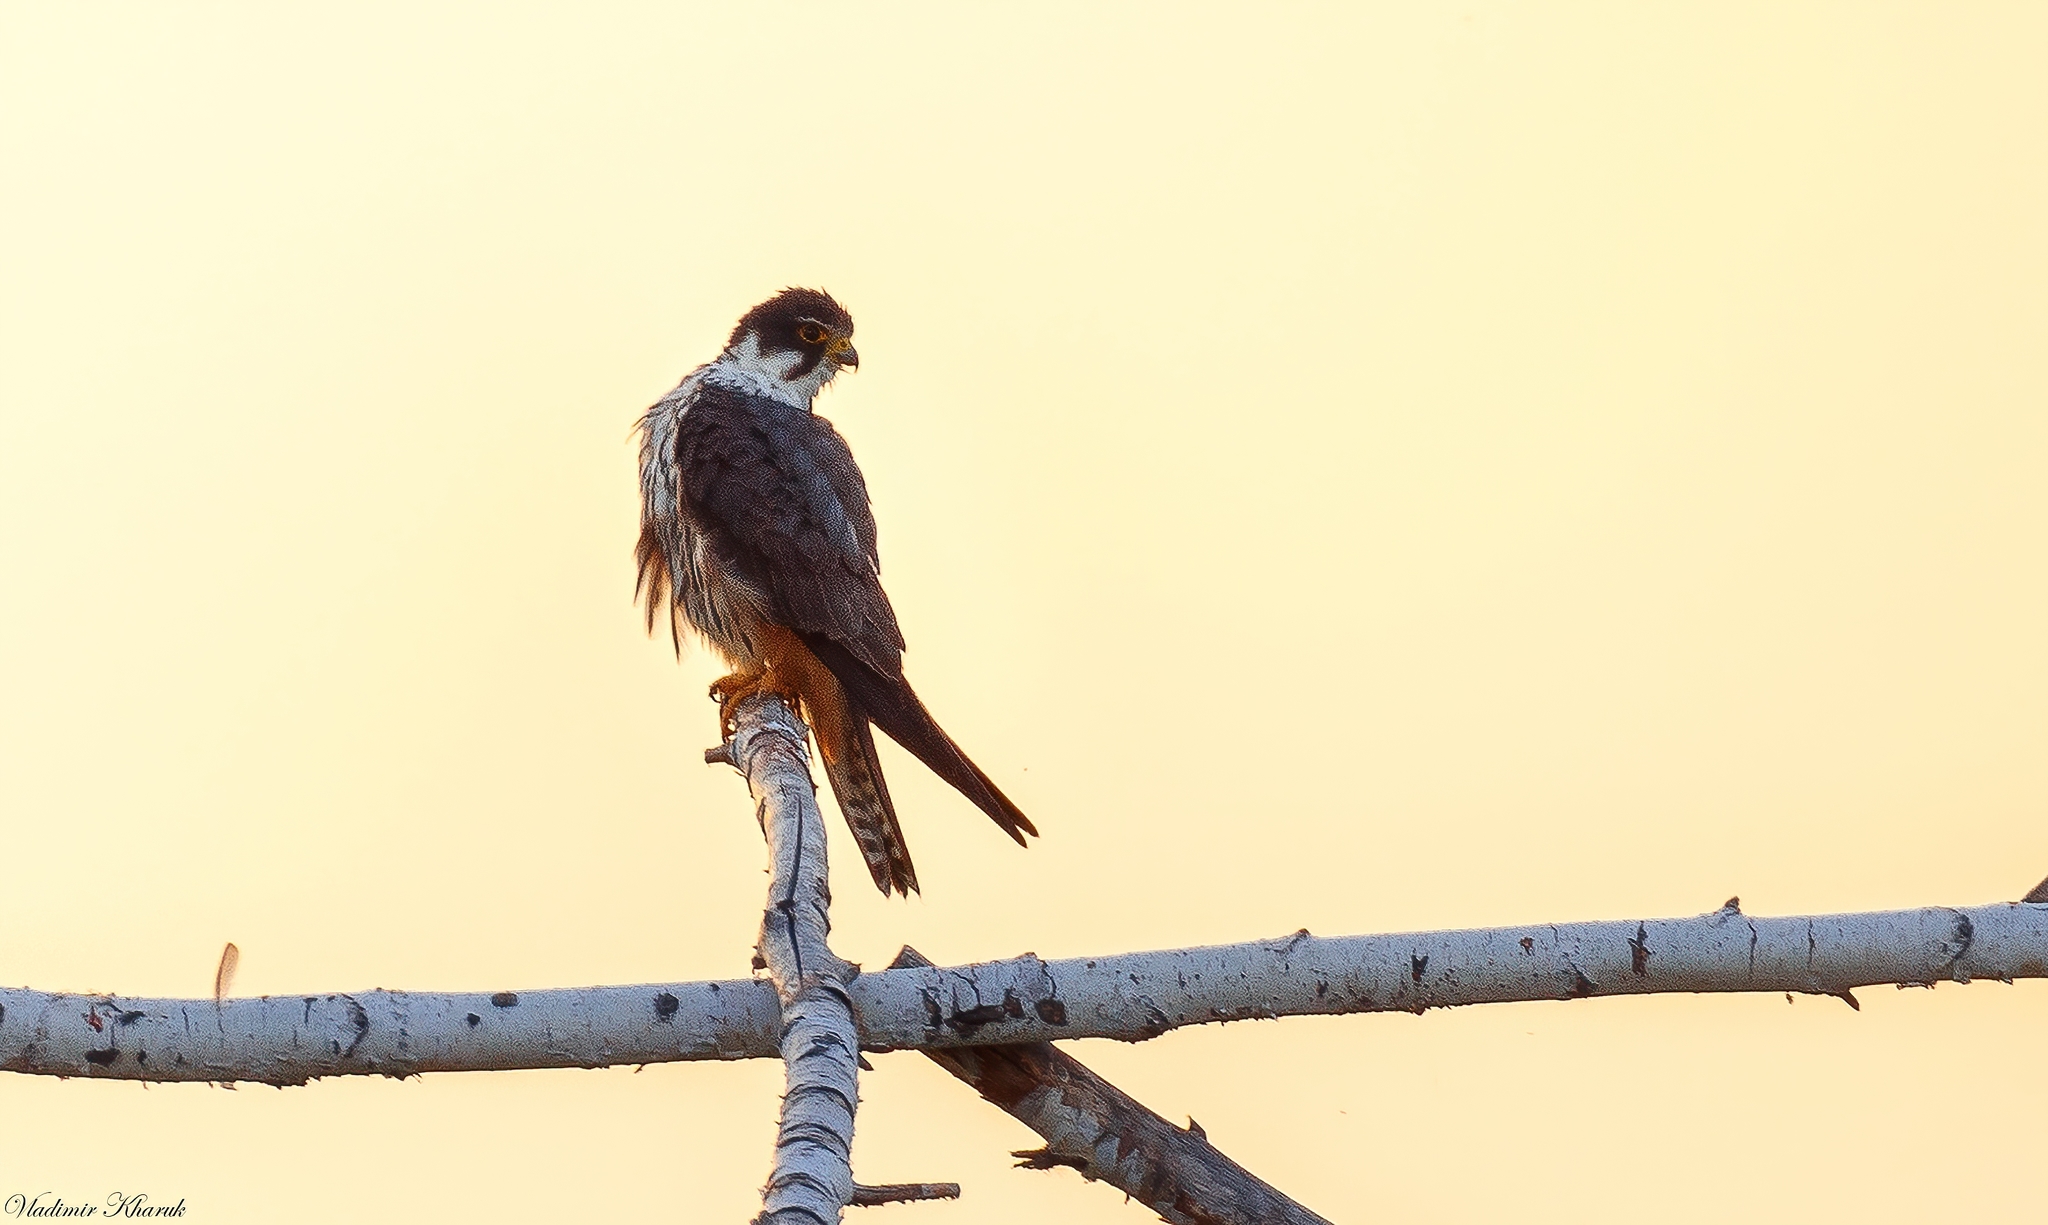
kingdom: Animalia
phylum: Chordata
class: Aves
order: Falconiformes
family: Falconidae
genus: Falco
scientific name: Falco subbuteo
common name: Eurasian hobby
